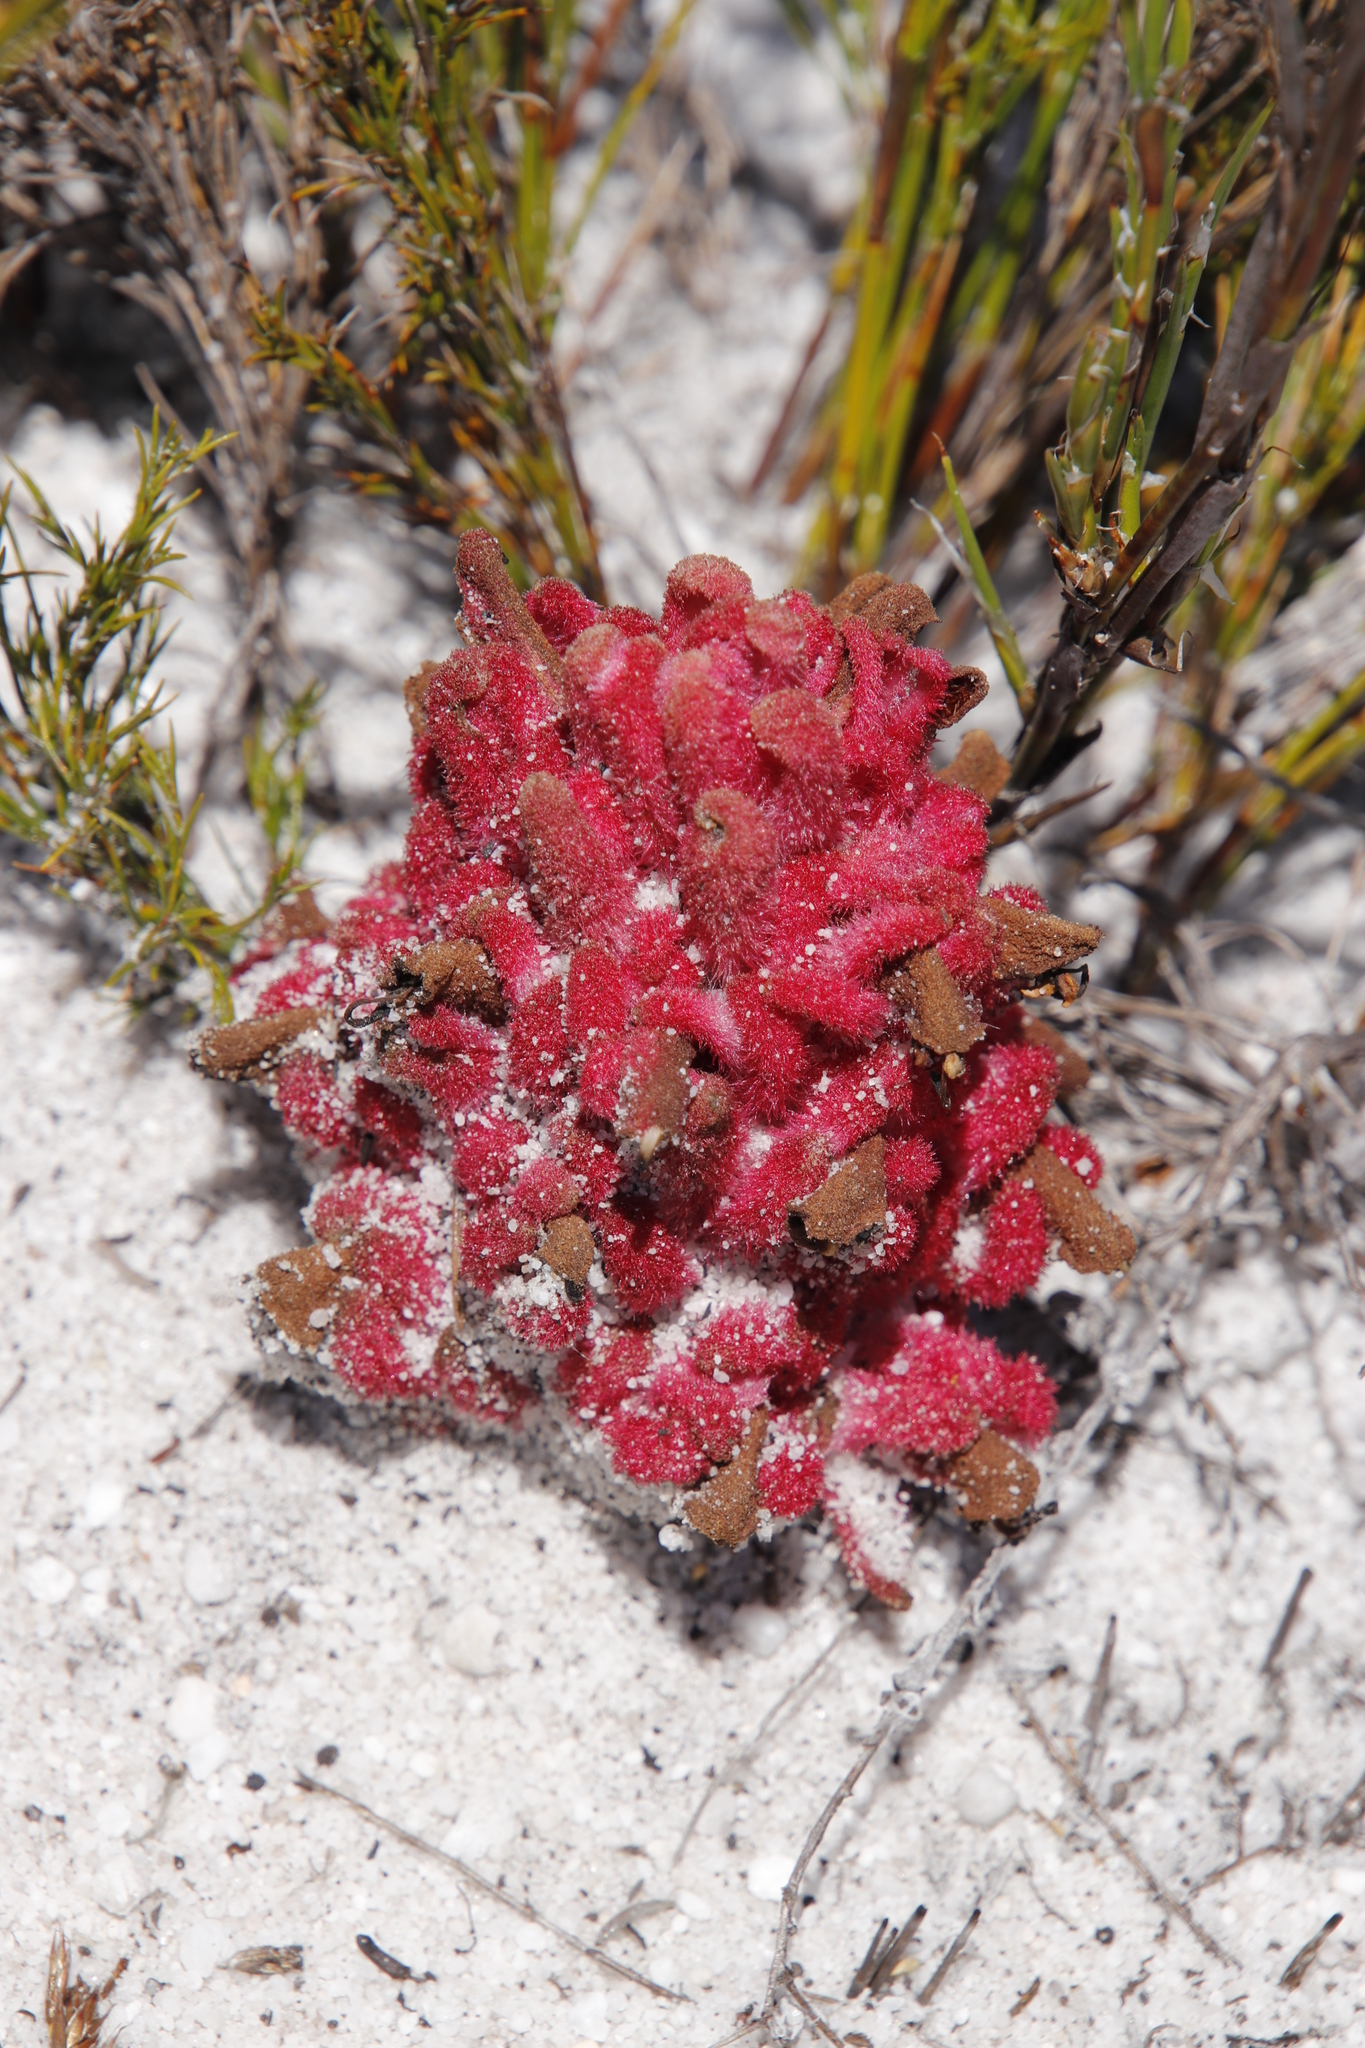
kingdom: Plantae
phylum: Tracheophyta
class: Magnoliopsida
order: Lamiales
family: Orobanchaceae
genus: Hyobanche
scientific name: Hyobanche sanguinea
